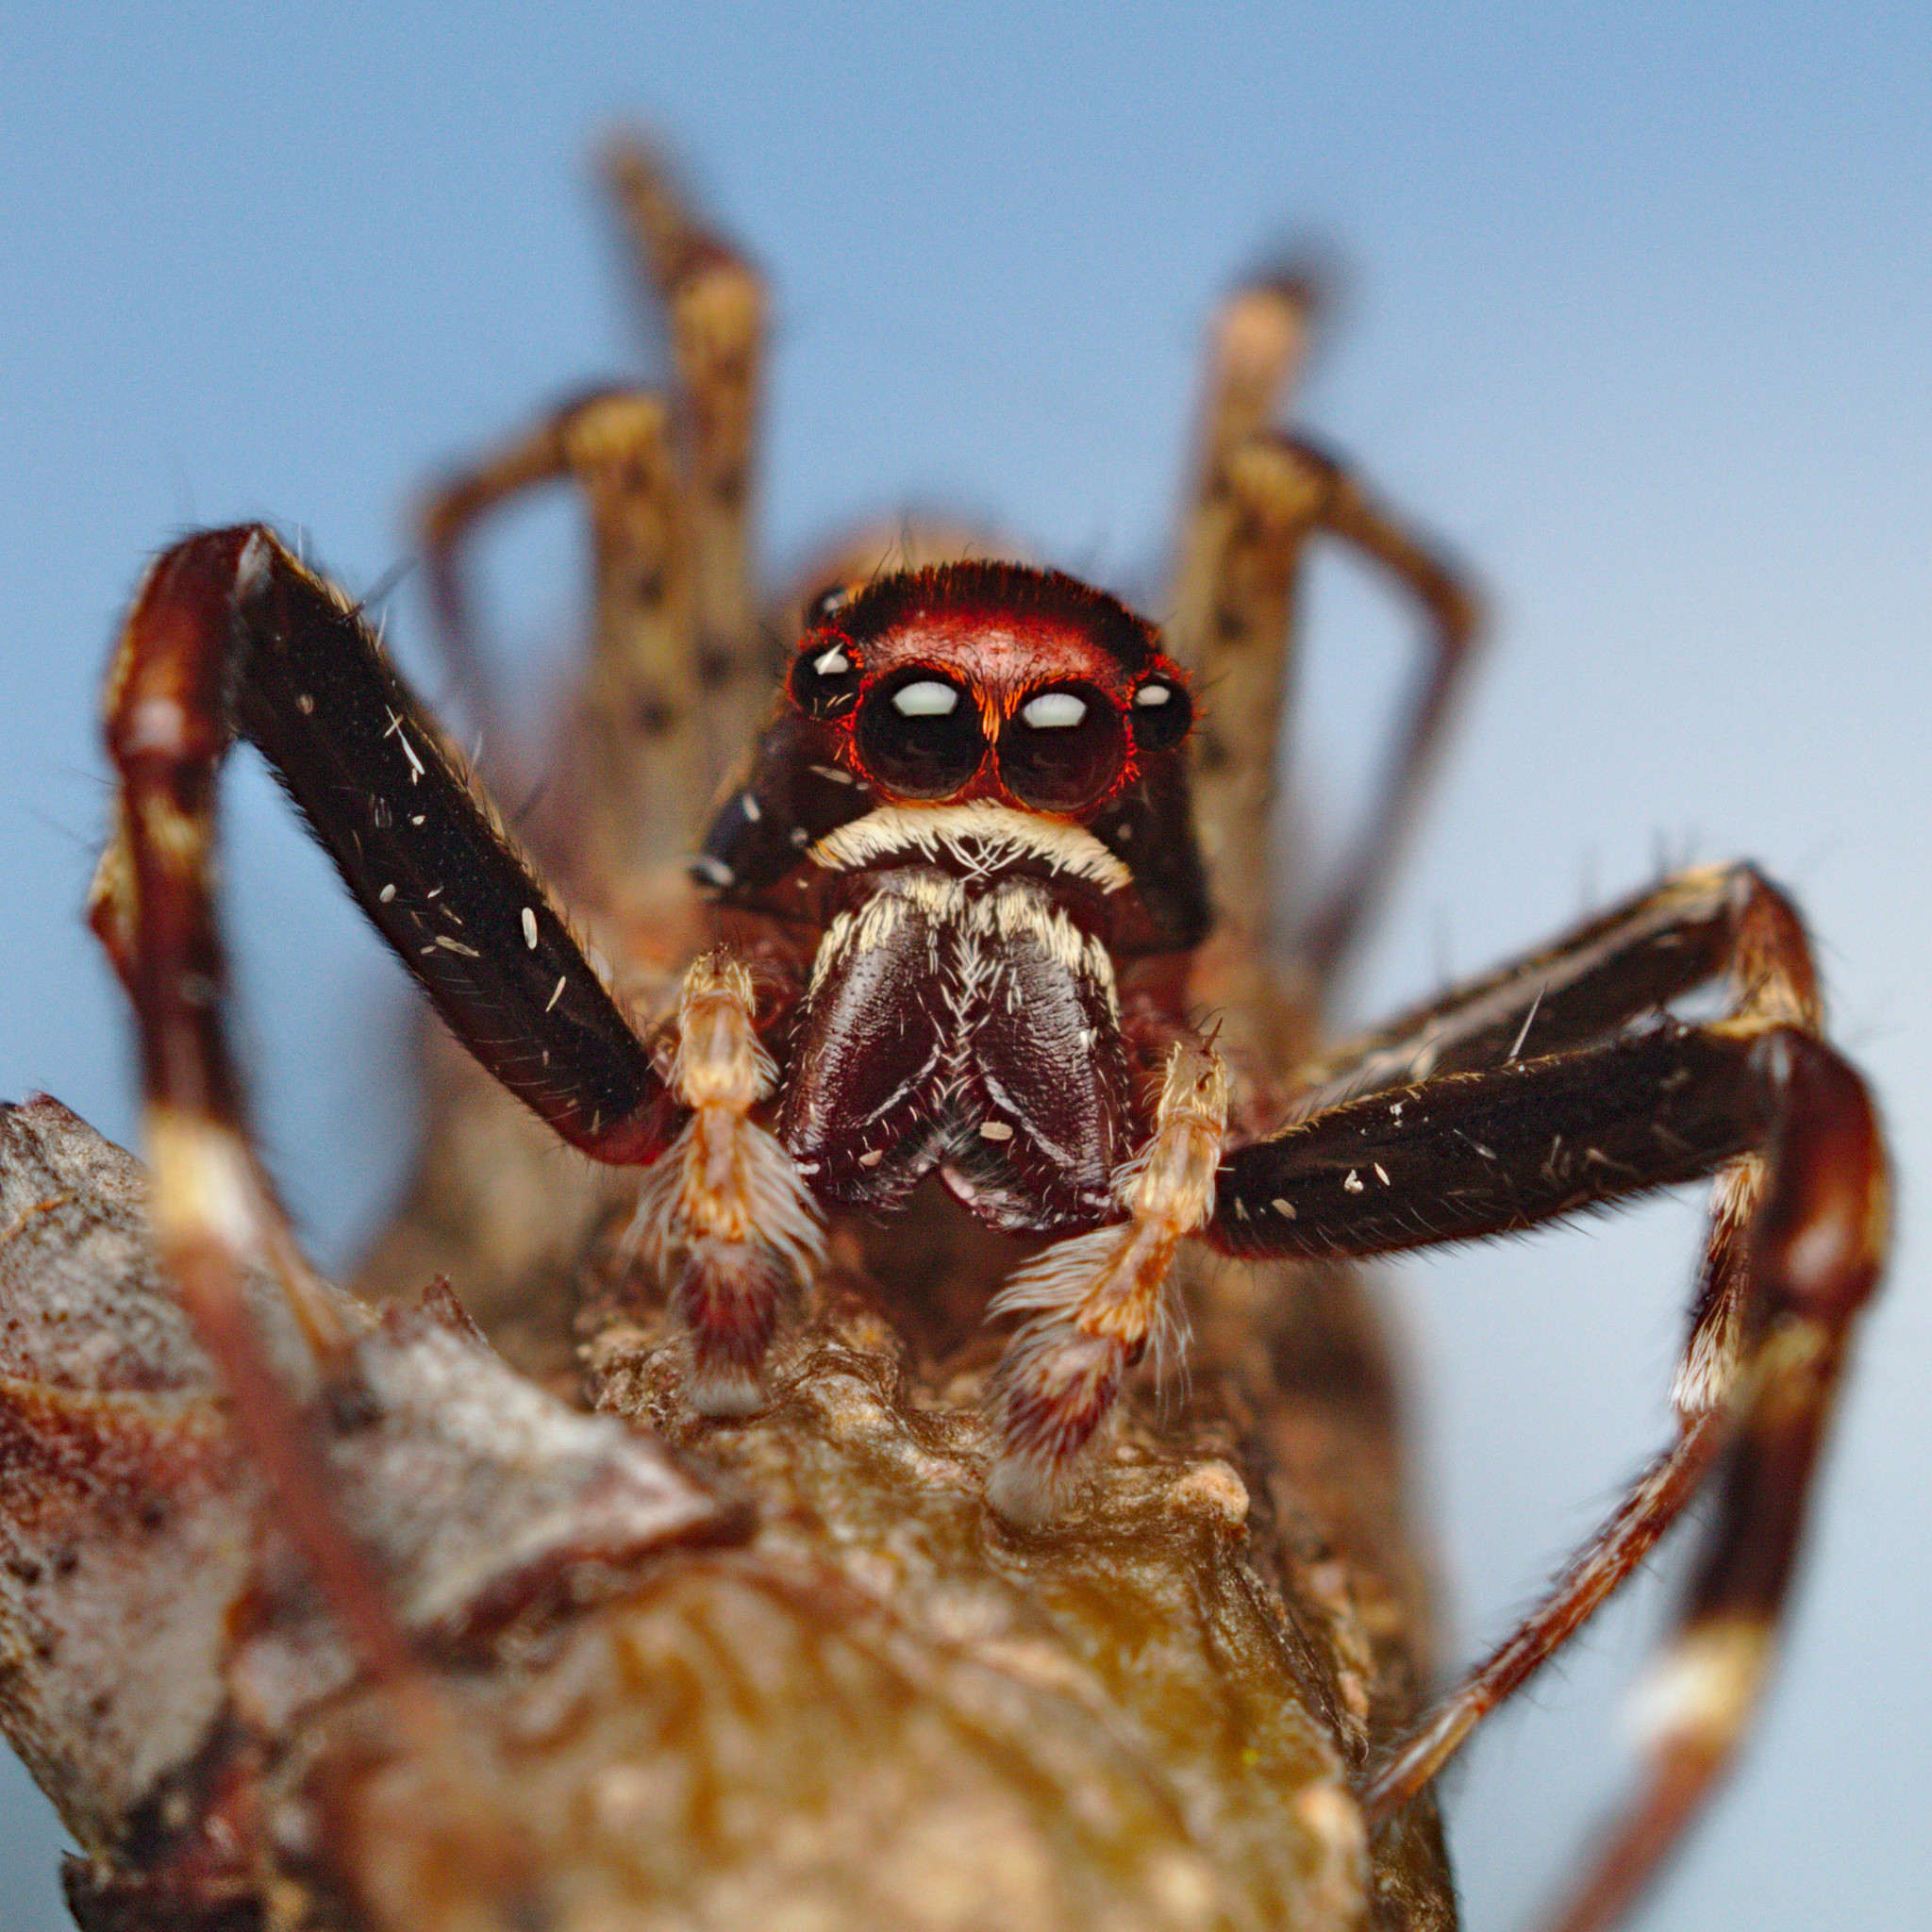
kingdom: Animalia
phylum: Arthropoda
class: Arachnida
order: Araneae
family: Salticidae
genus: Helpis
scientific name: Helpis minitabunda
